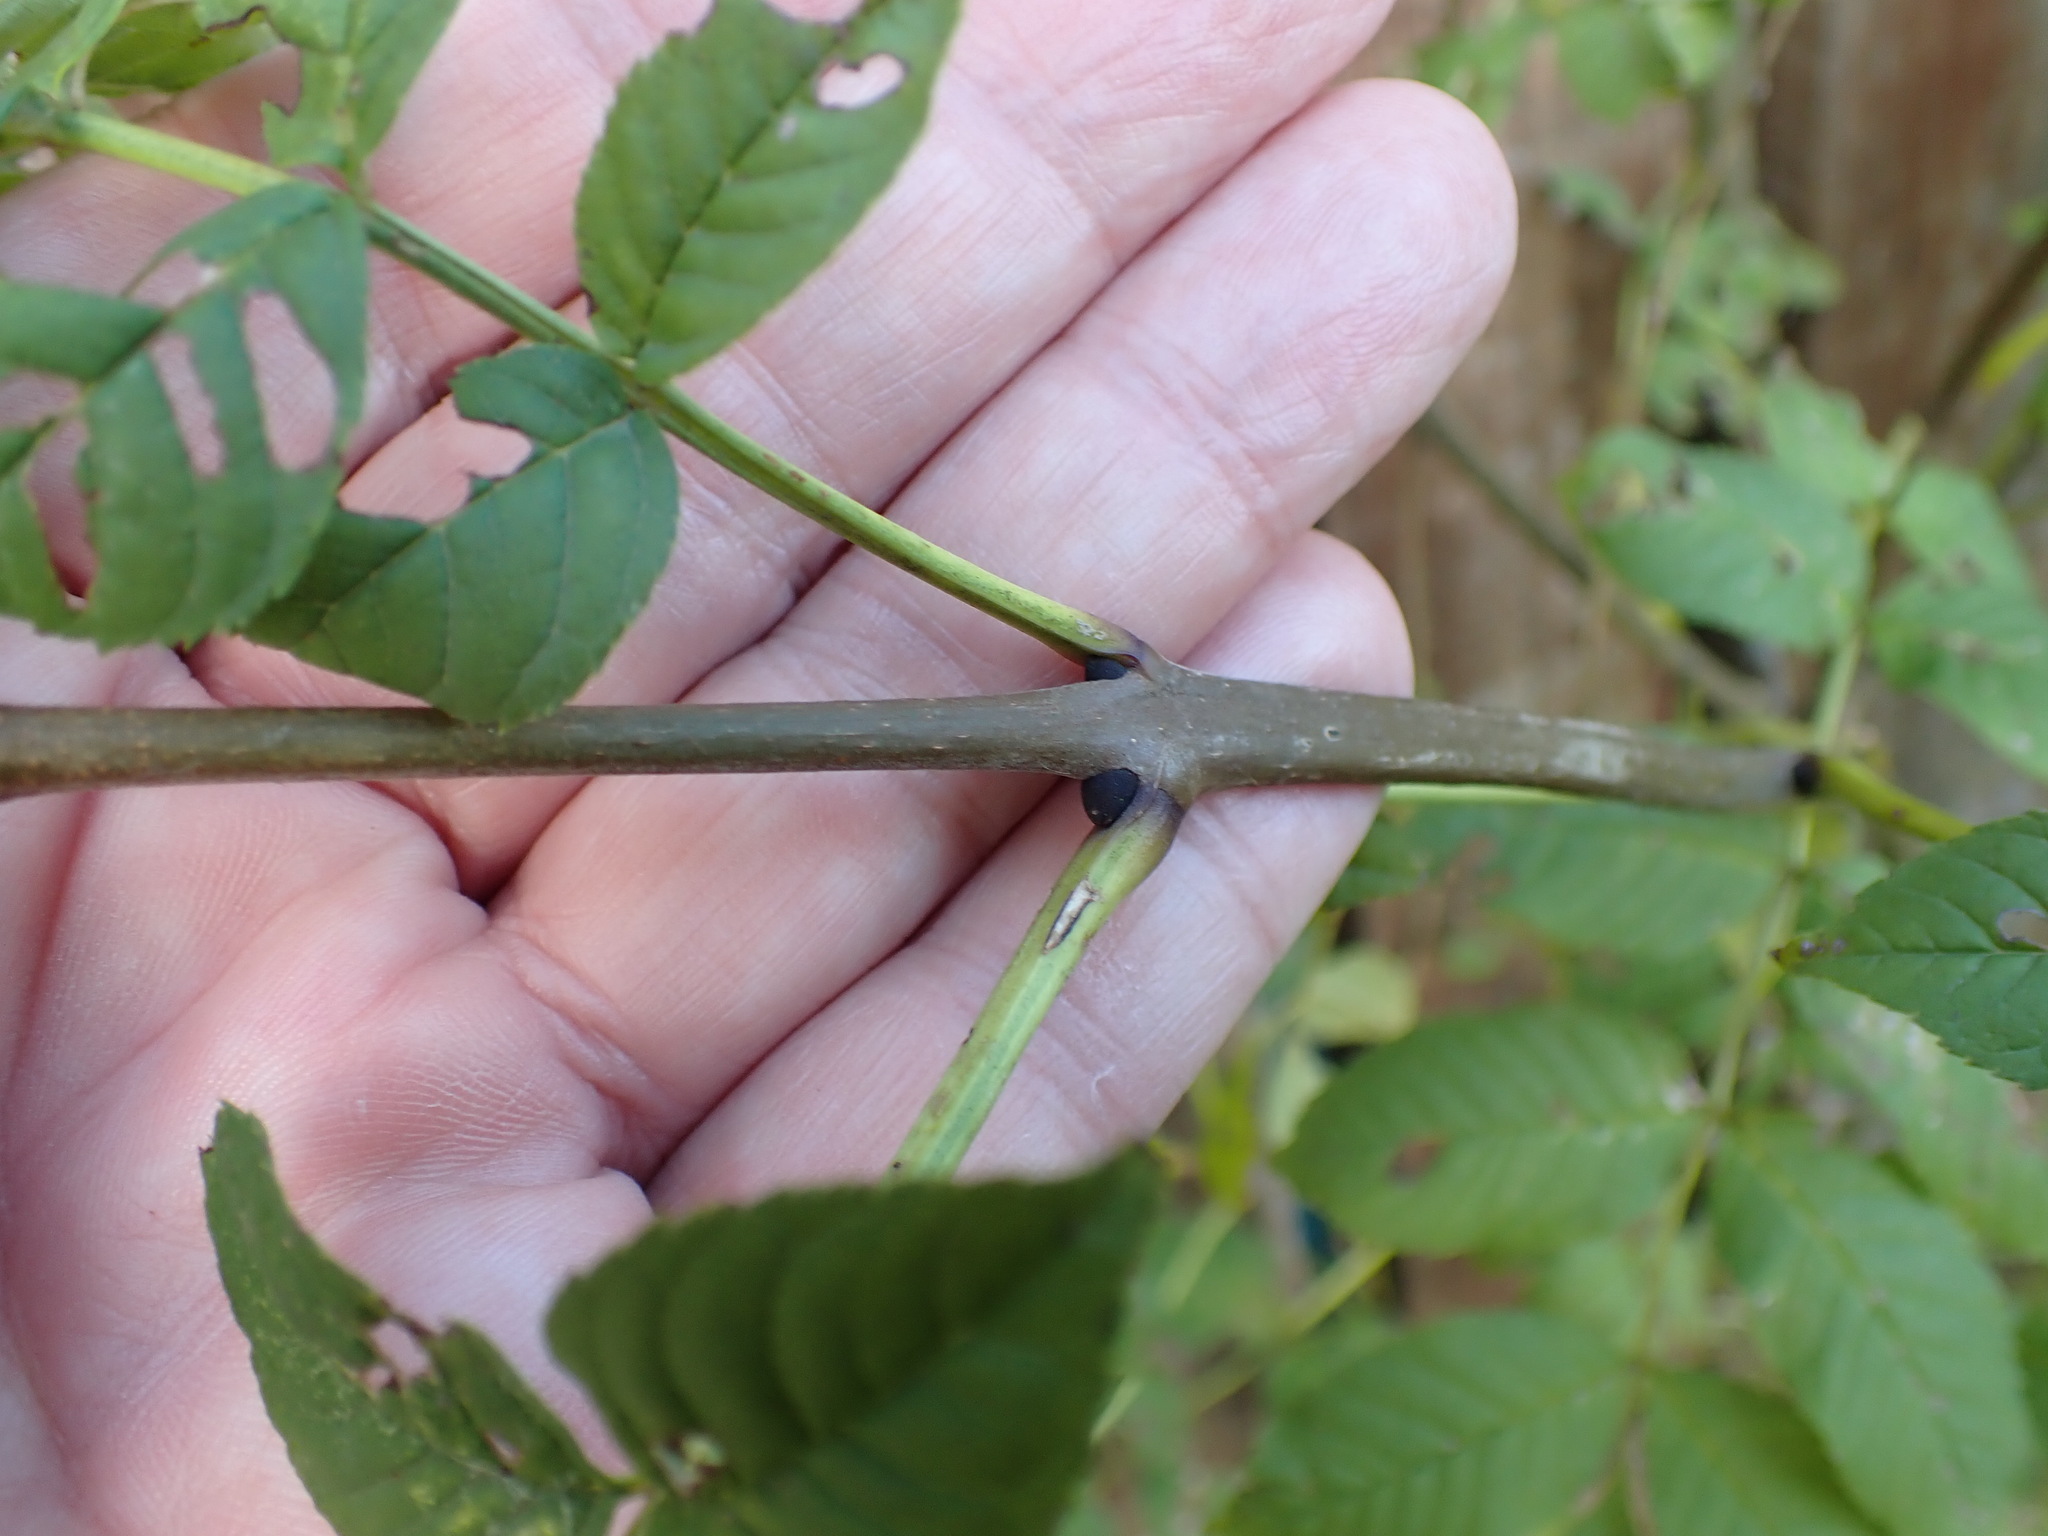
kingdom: Plantae
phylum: Tracheophyta
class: Magnoliopsida
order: Lamiales
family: Oleaceae
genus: Fraxinus
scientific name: Fraxinus excelsior
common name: European ash
